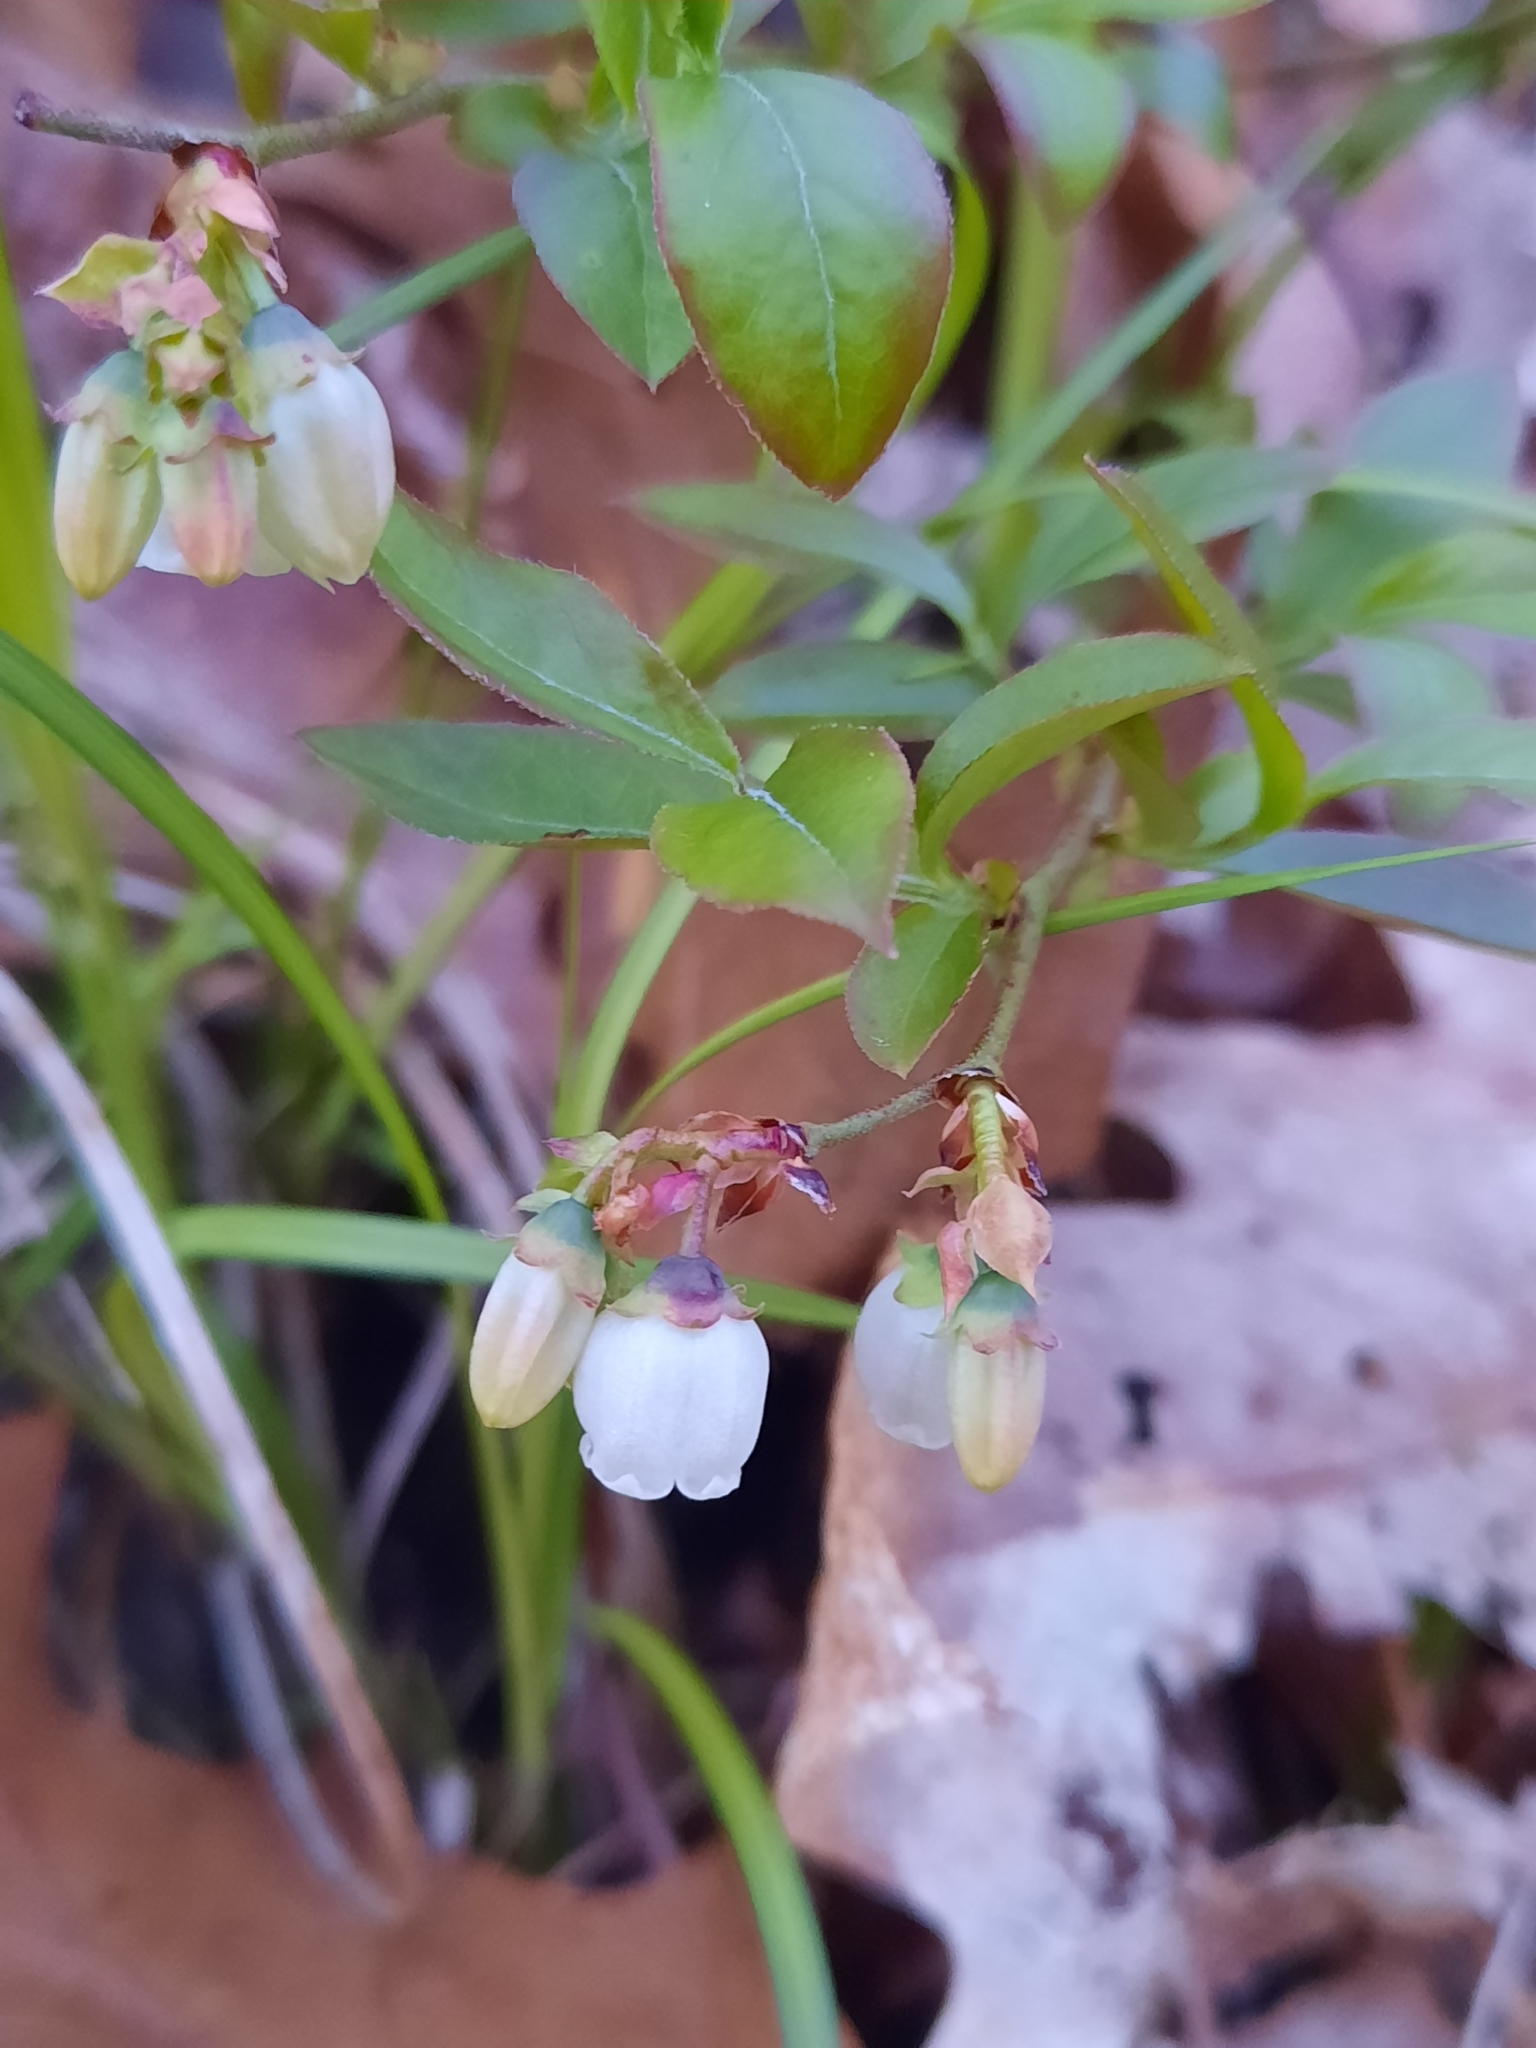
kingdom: Plantae
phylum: Tracheophyta
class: Magnoliopsida
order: Ericales
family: Ericaceae
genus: Vaccinium
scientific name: Vaccinium angustifolium
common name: Early lowbush blueberry
